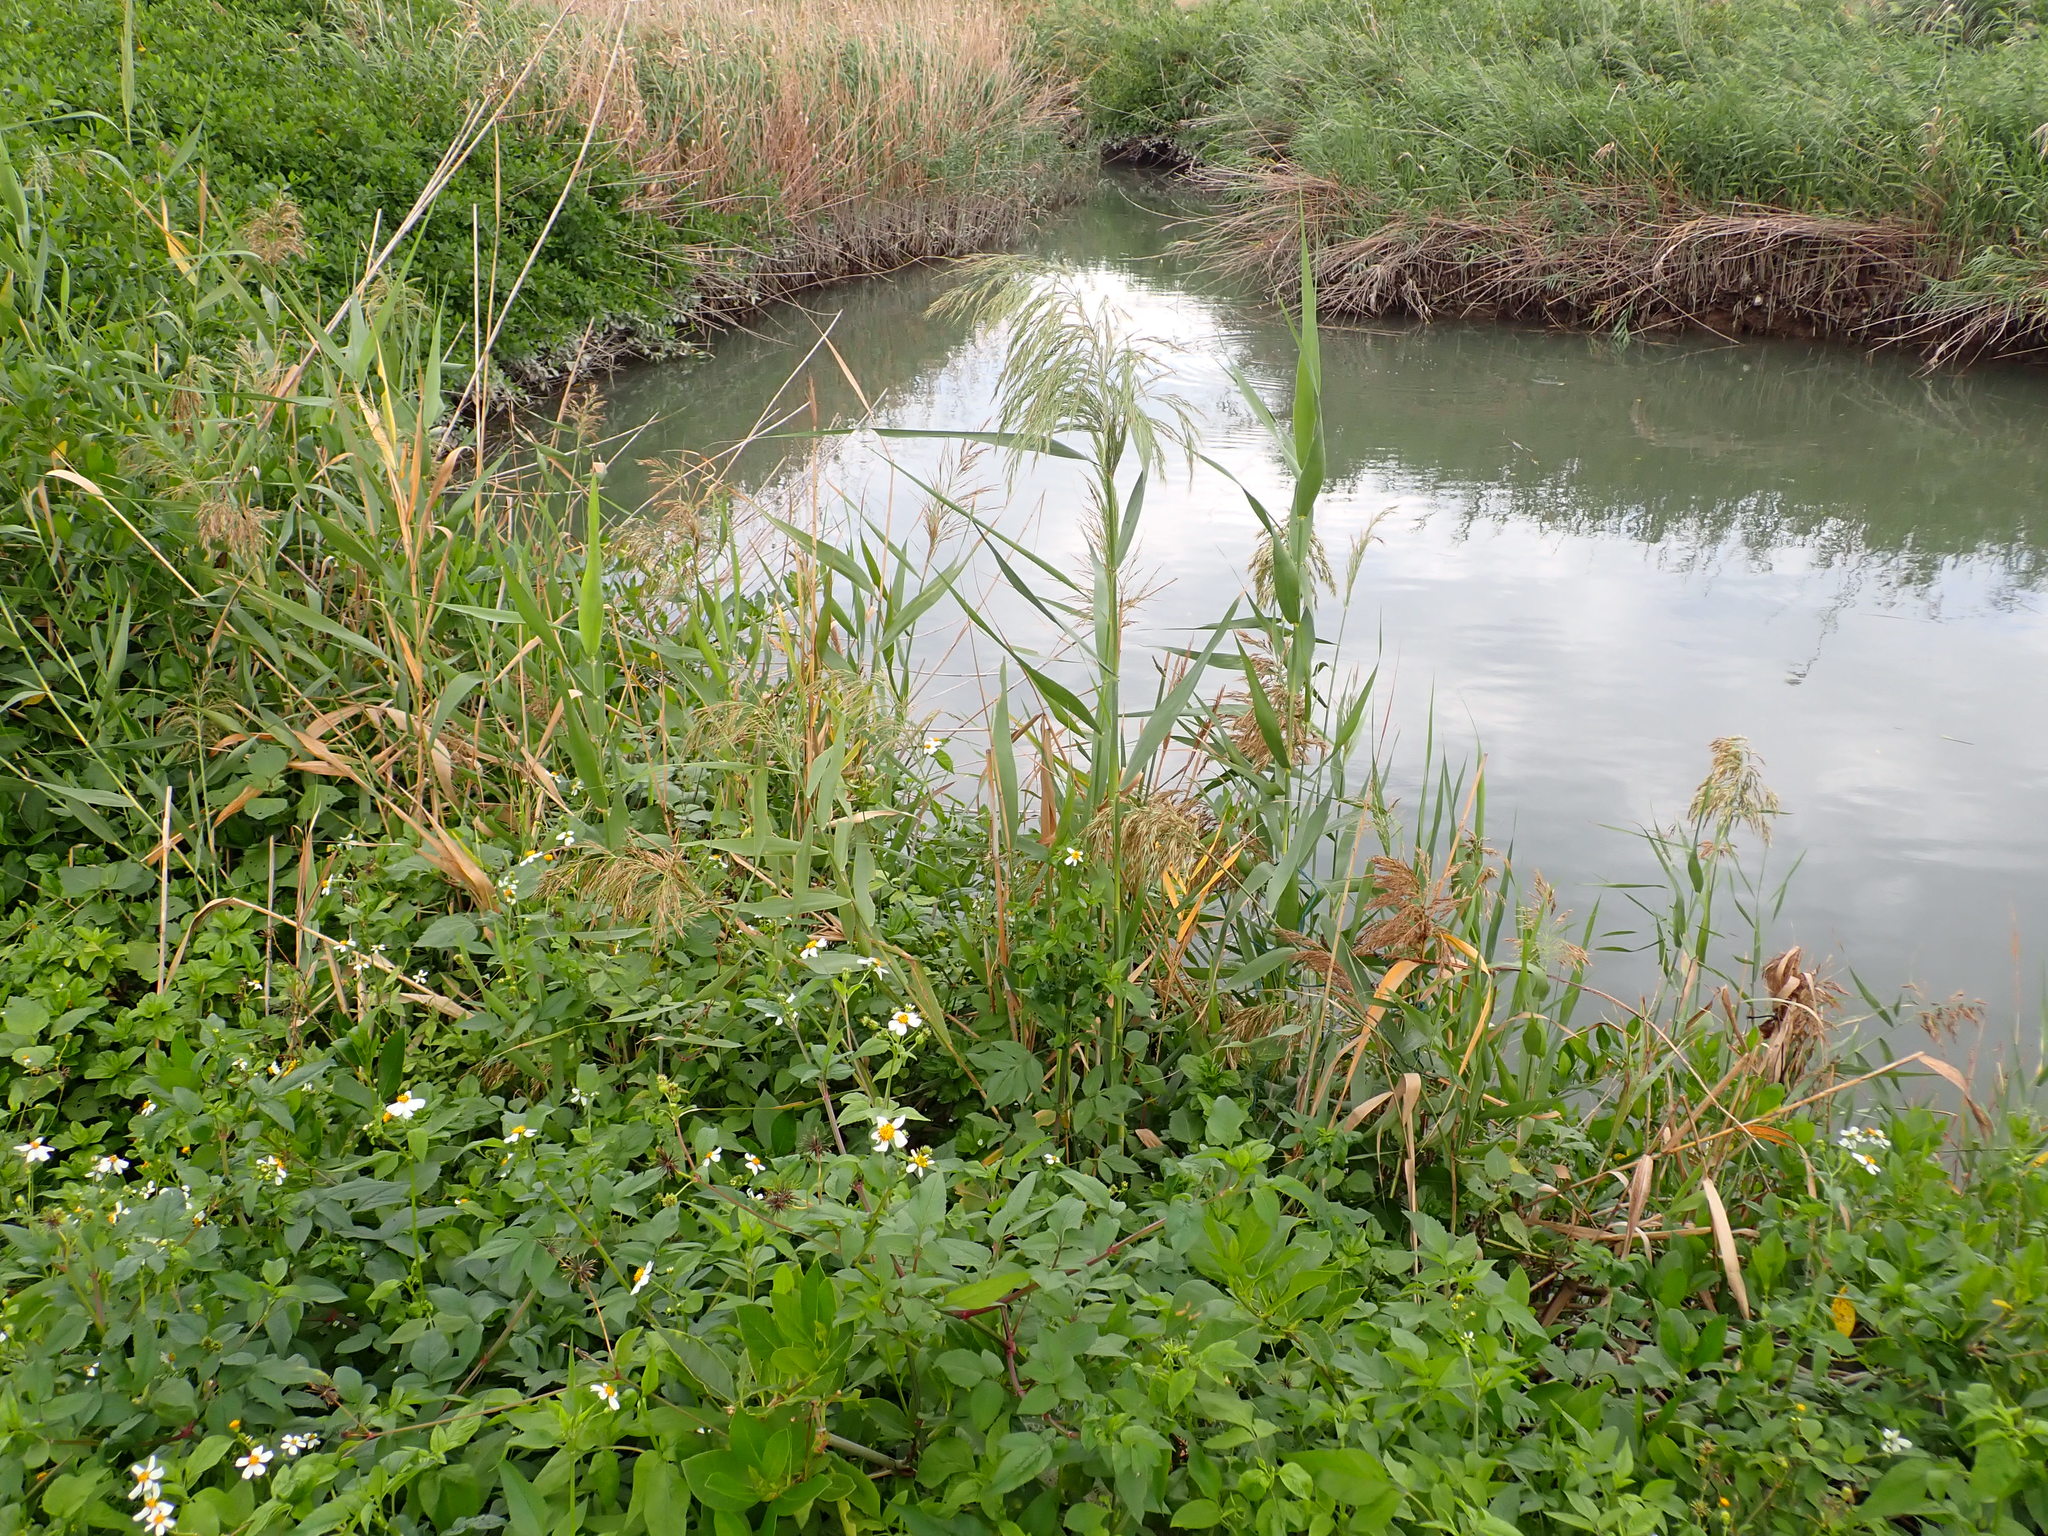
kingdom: Plantae
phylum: Tracheophyta
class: Liliopsida
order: Poales
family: Poaceae
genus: Phragmites
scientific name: Phragmites australis
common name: Common reed
